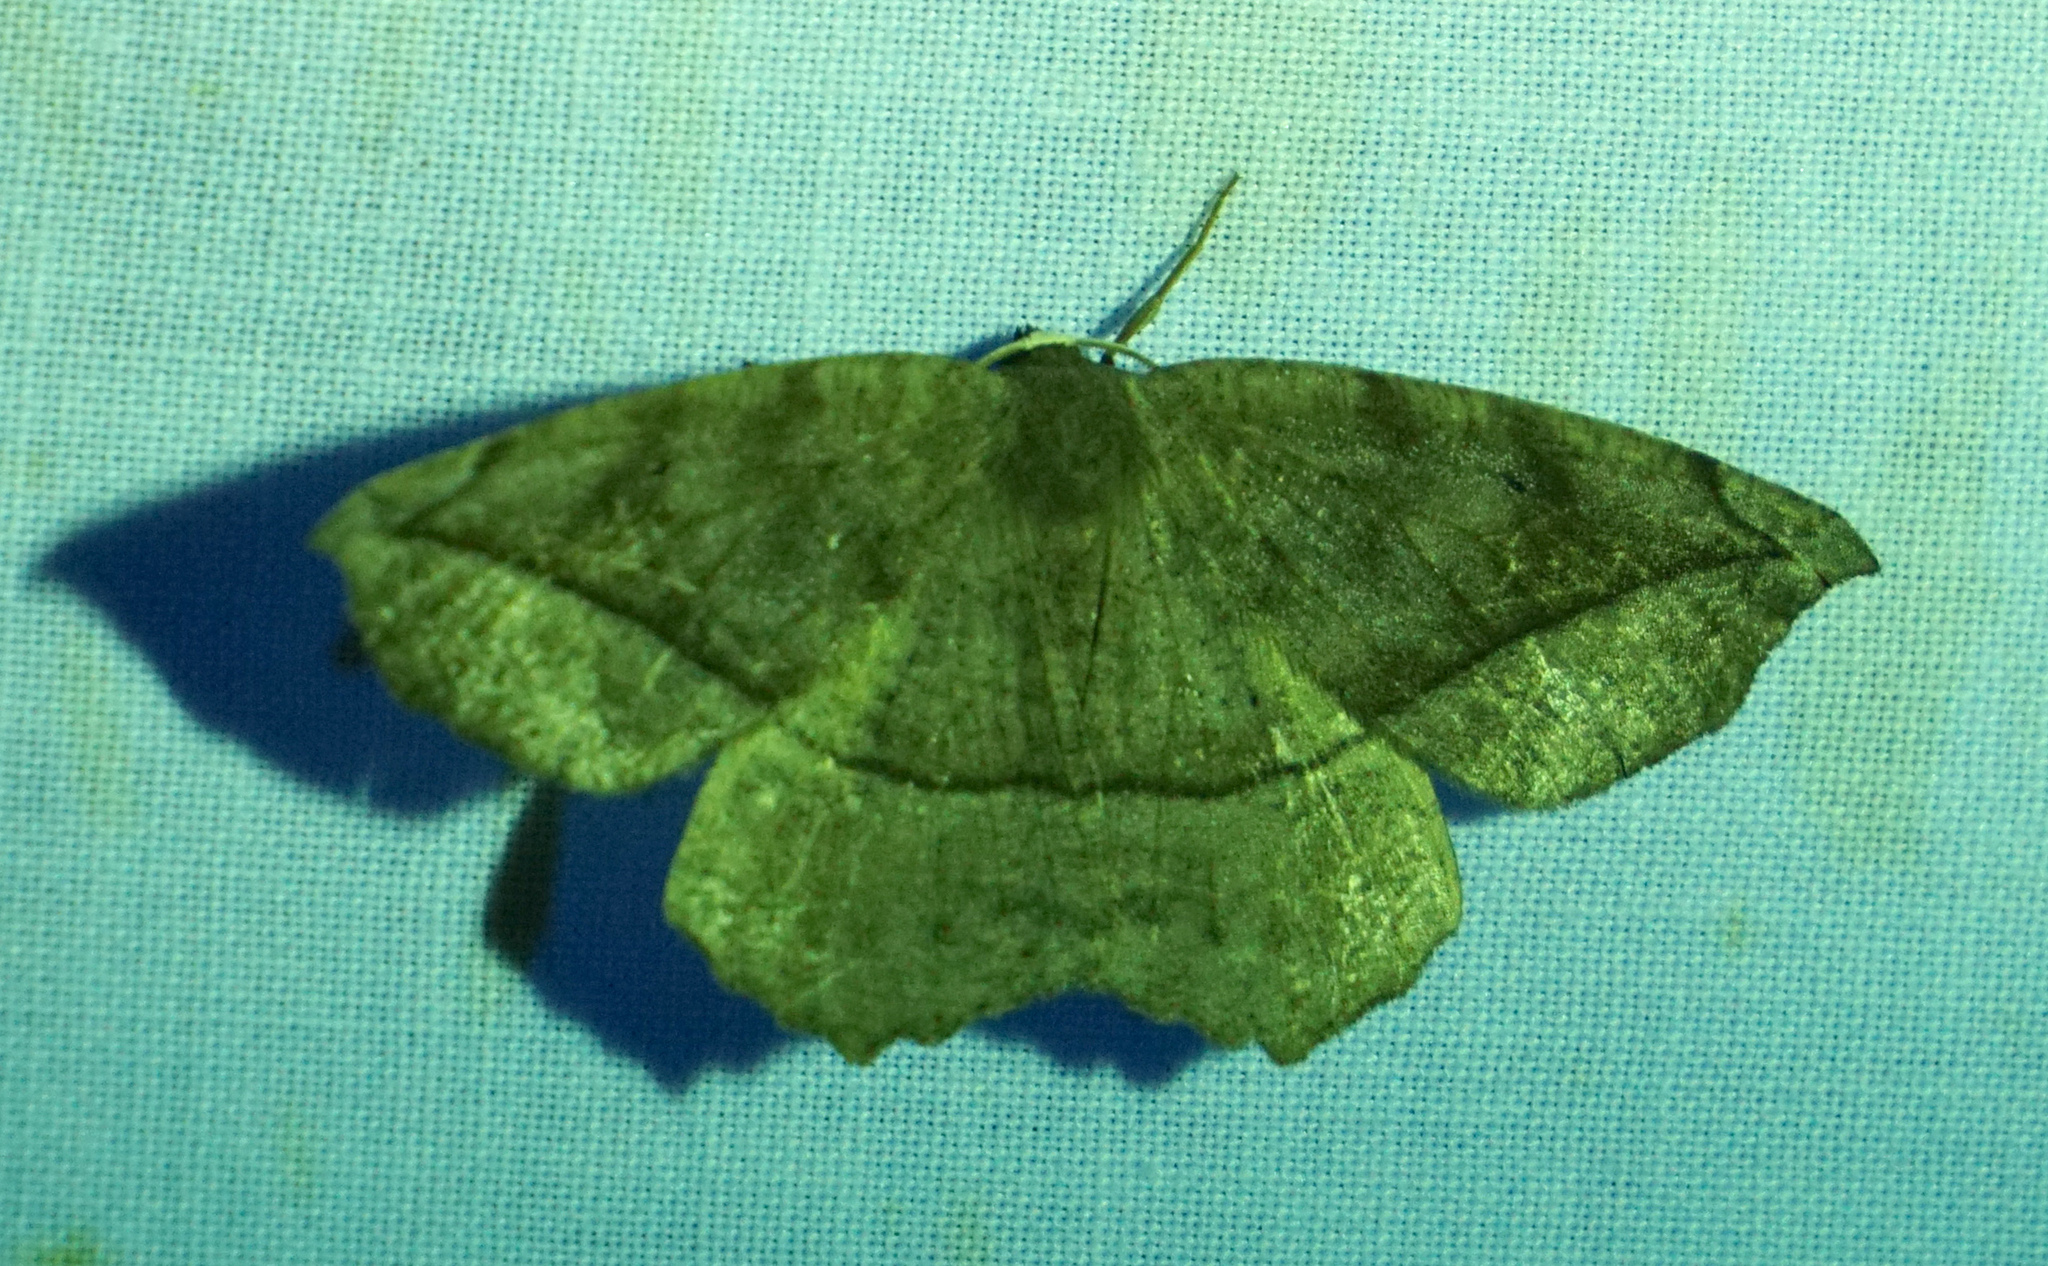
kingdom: Animalia
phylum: Arthropoda
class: Insecta
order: Lepidoptera
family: Geometridae
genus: Eutrapela
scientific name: Eutrapela clemataria
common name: Curved-toothed geometer
